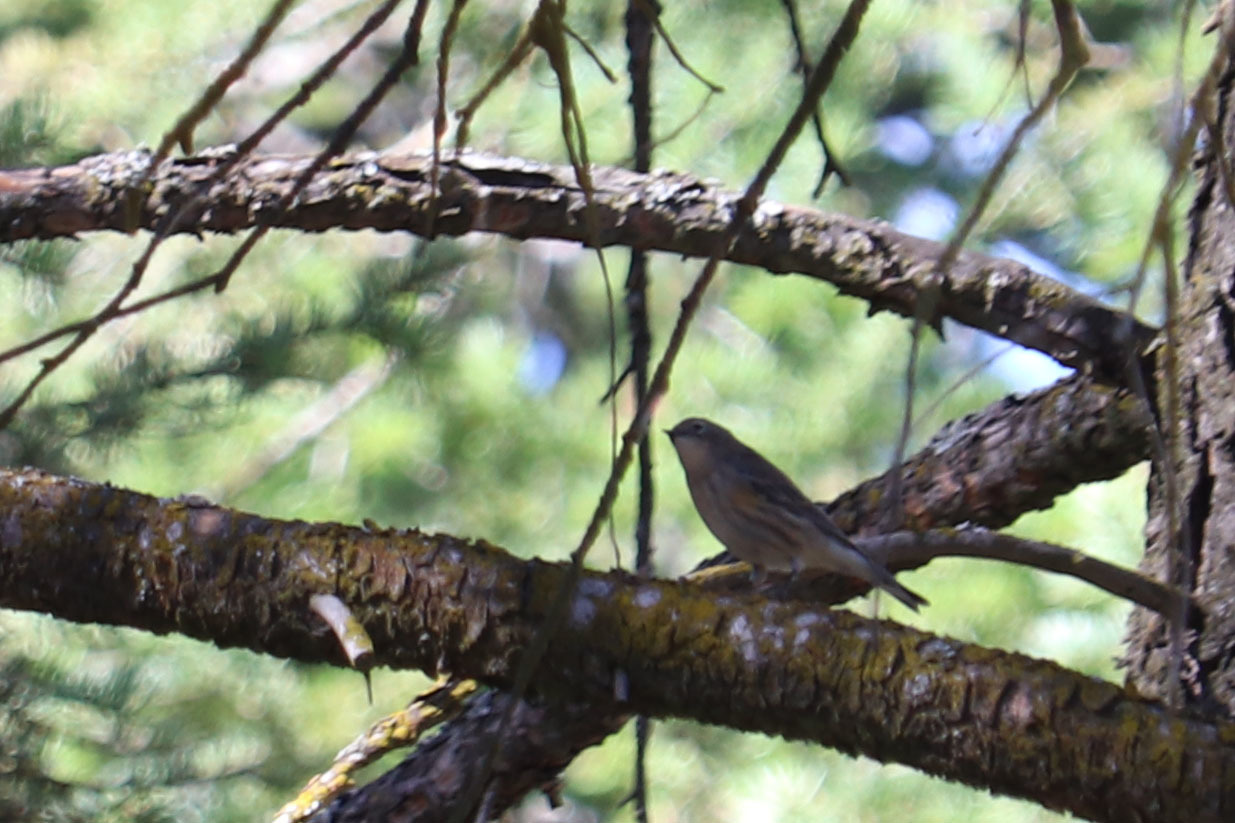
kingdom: Animalia
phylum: Chordata
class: Aves
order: Passeriformes
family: Parulidae
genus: Setophaga
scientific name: Setophaga auduboni
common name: Audubon's warbler
